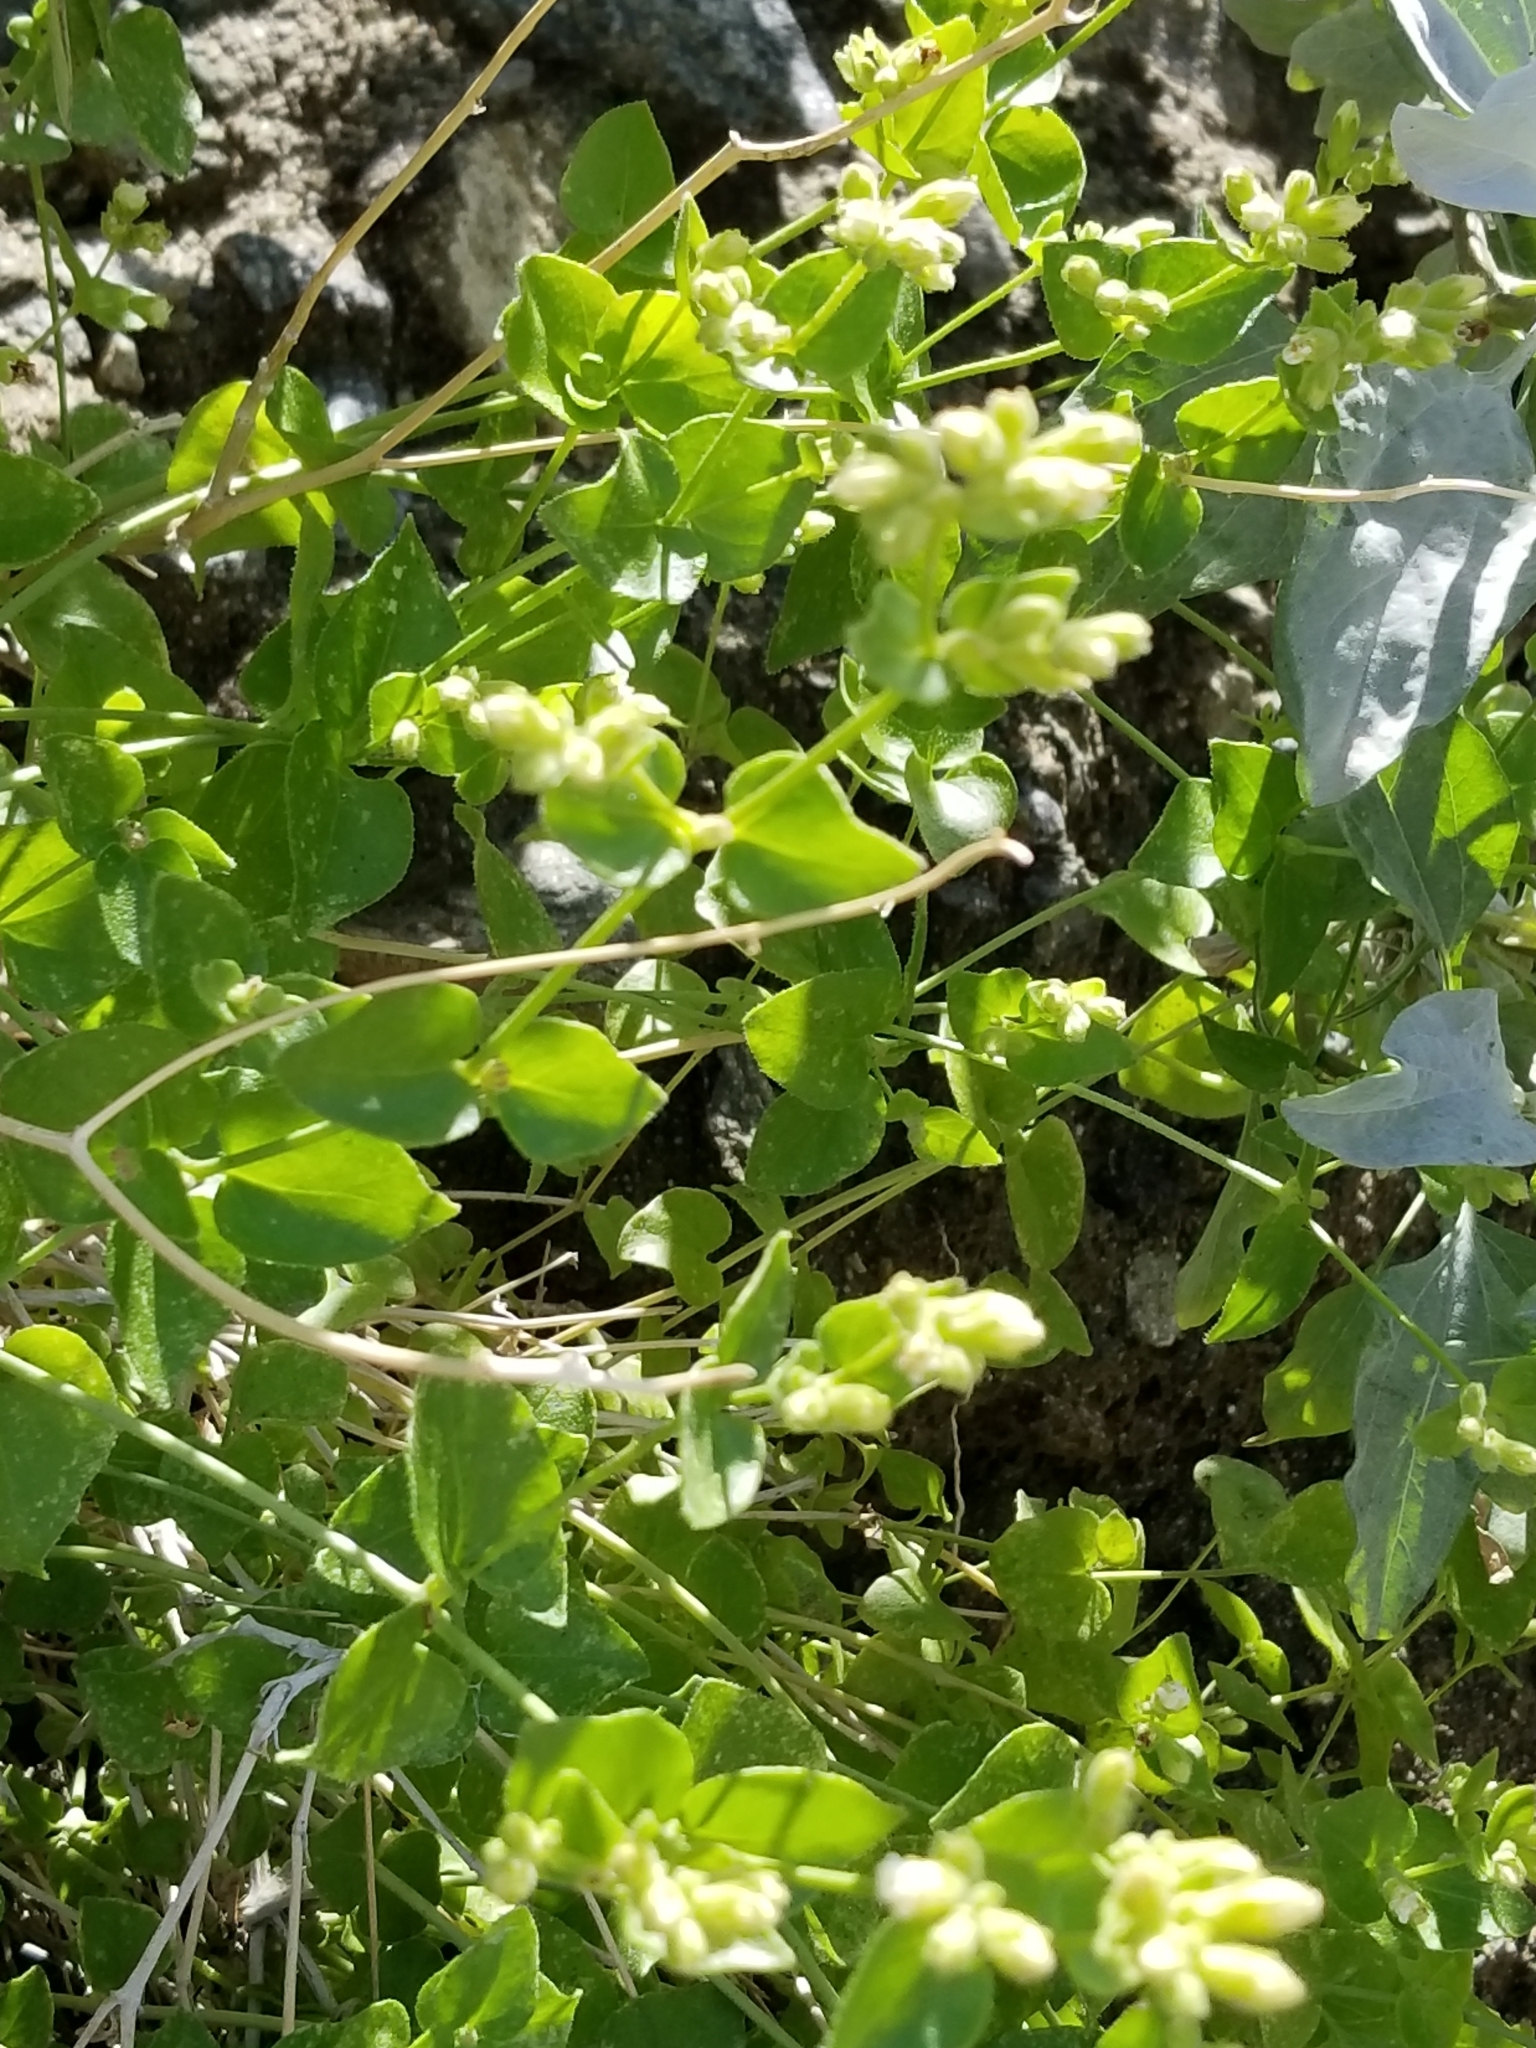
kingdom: Plantae
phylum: Tracheophyta
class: Magnoliopsida
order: Caryophyllales
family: Nyctaginaceae
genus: Mirabilis
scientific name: Mirabilis laevis
